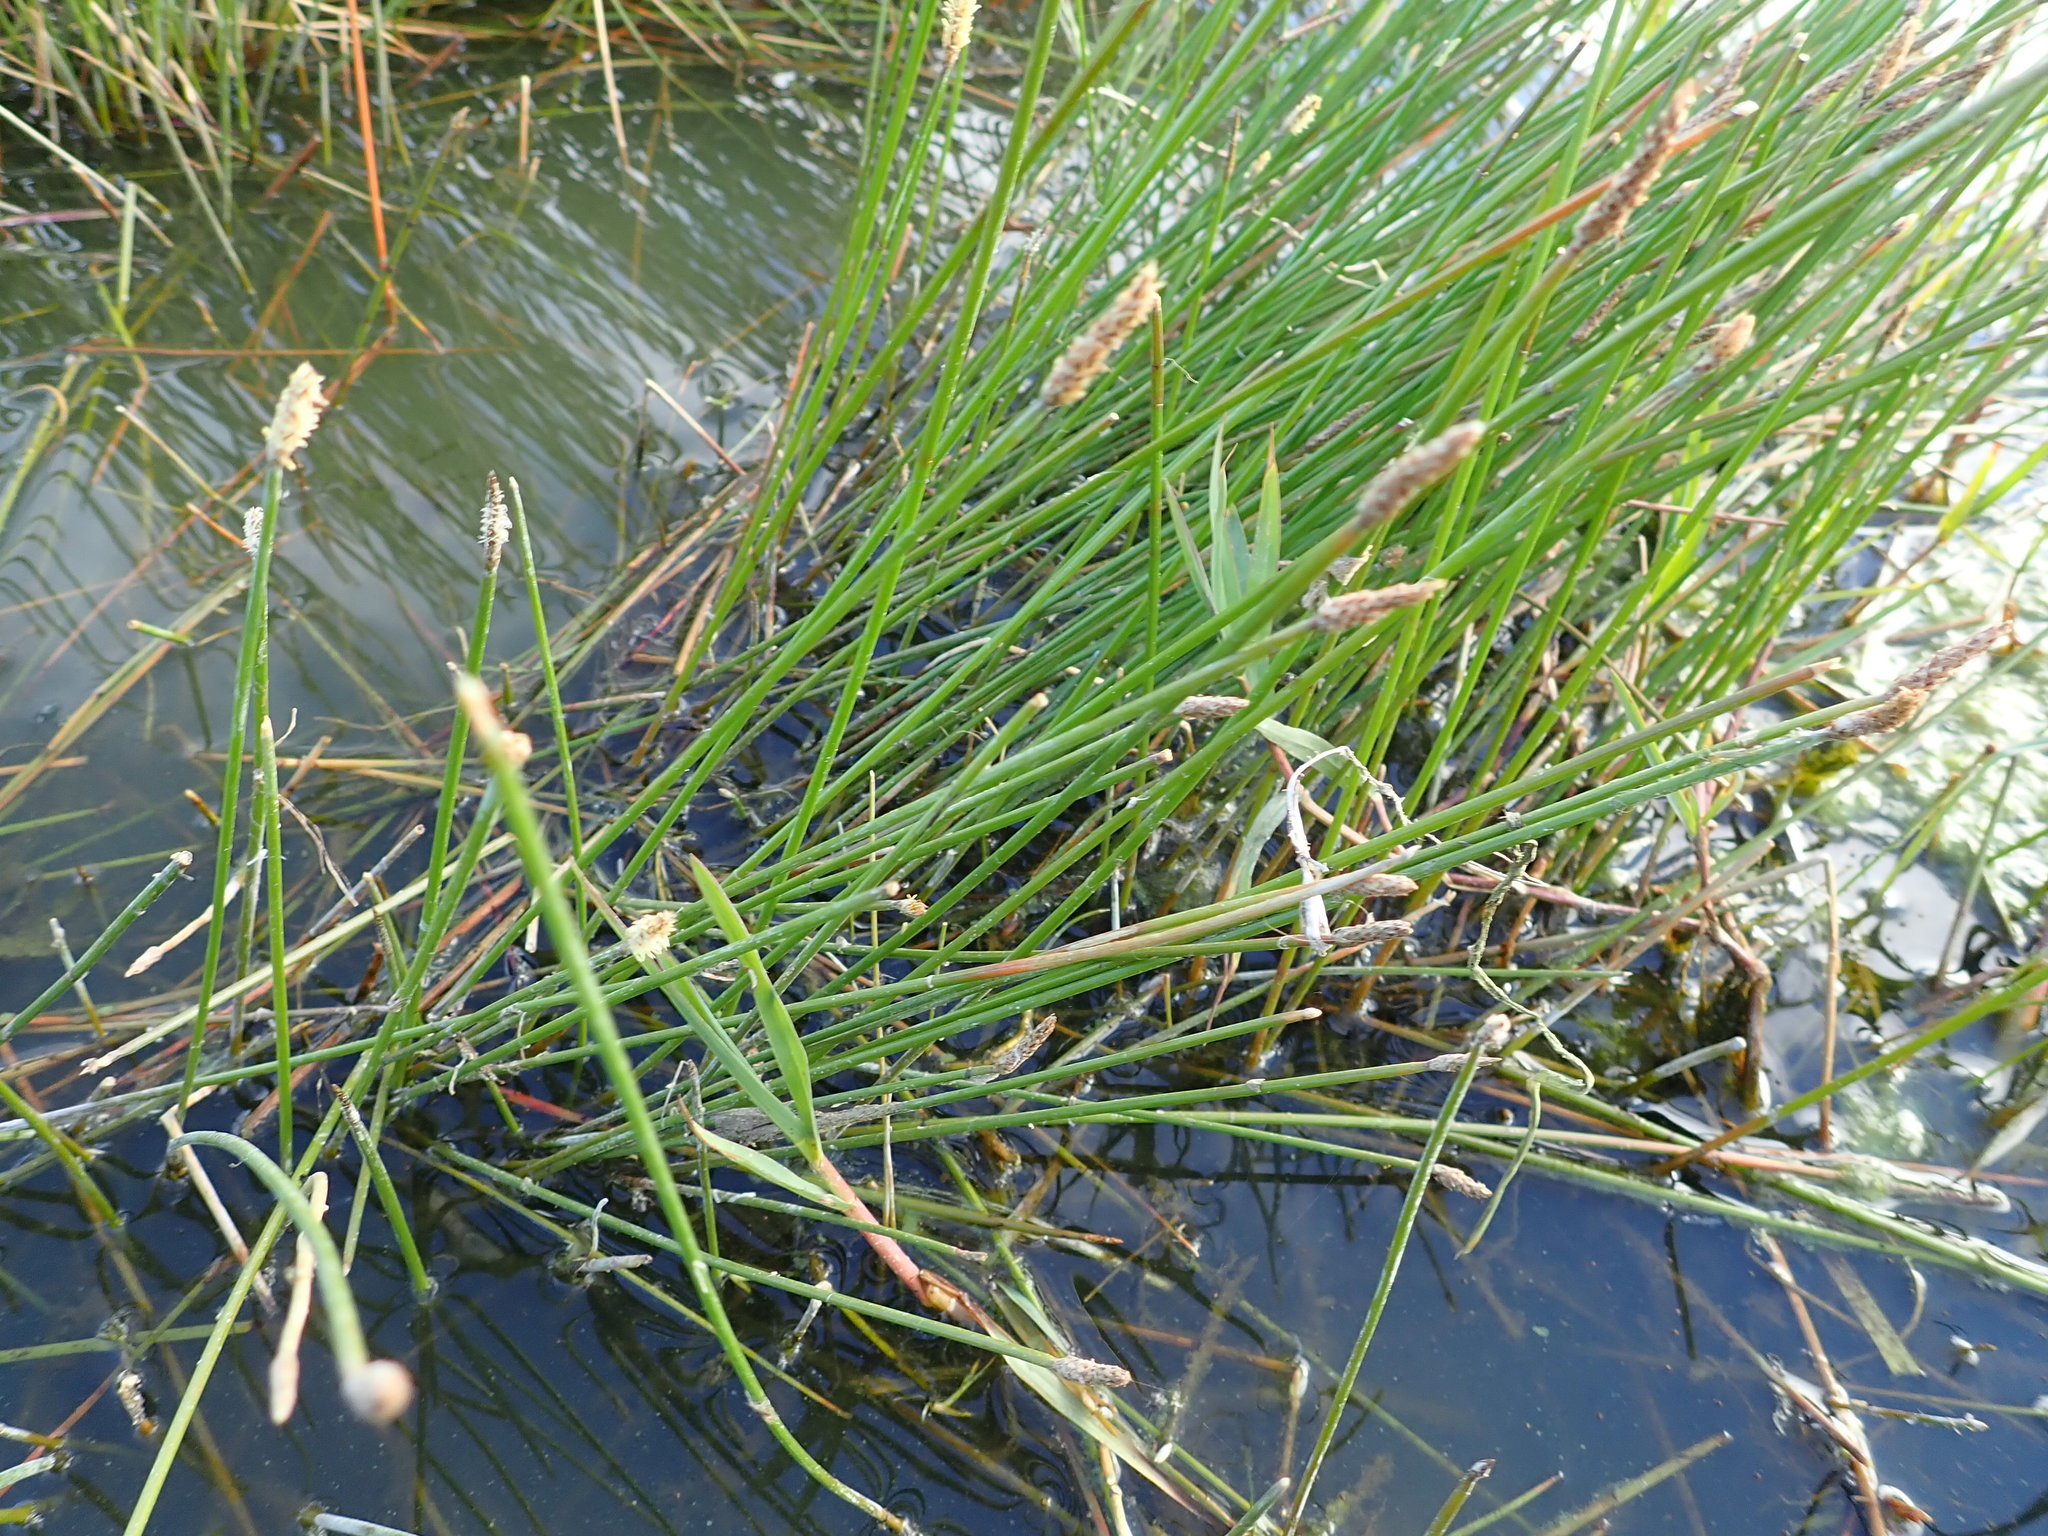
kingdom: Plantae
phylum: Tracheophyta
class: Liliopsida
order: Poales
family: Cyperaceae
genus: Eleocharis
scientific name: Eleocharis acuta
